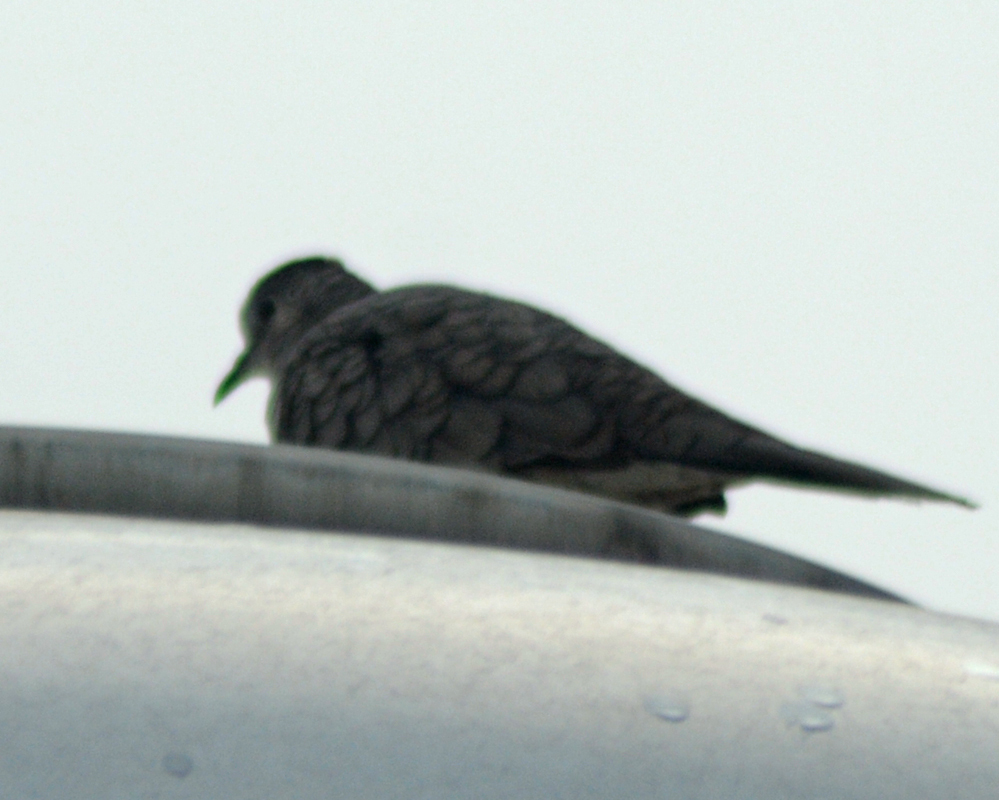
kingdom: Animalia
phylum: Chordata
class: Aves
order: Columbiformes
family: Columbidae
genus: Columbina
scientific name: Columbina inca
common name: Inca dove
